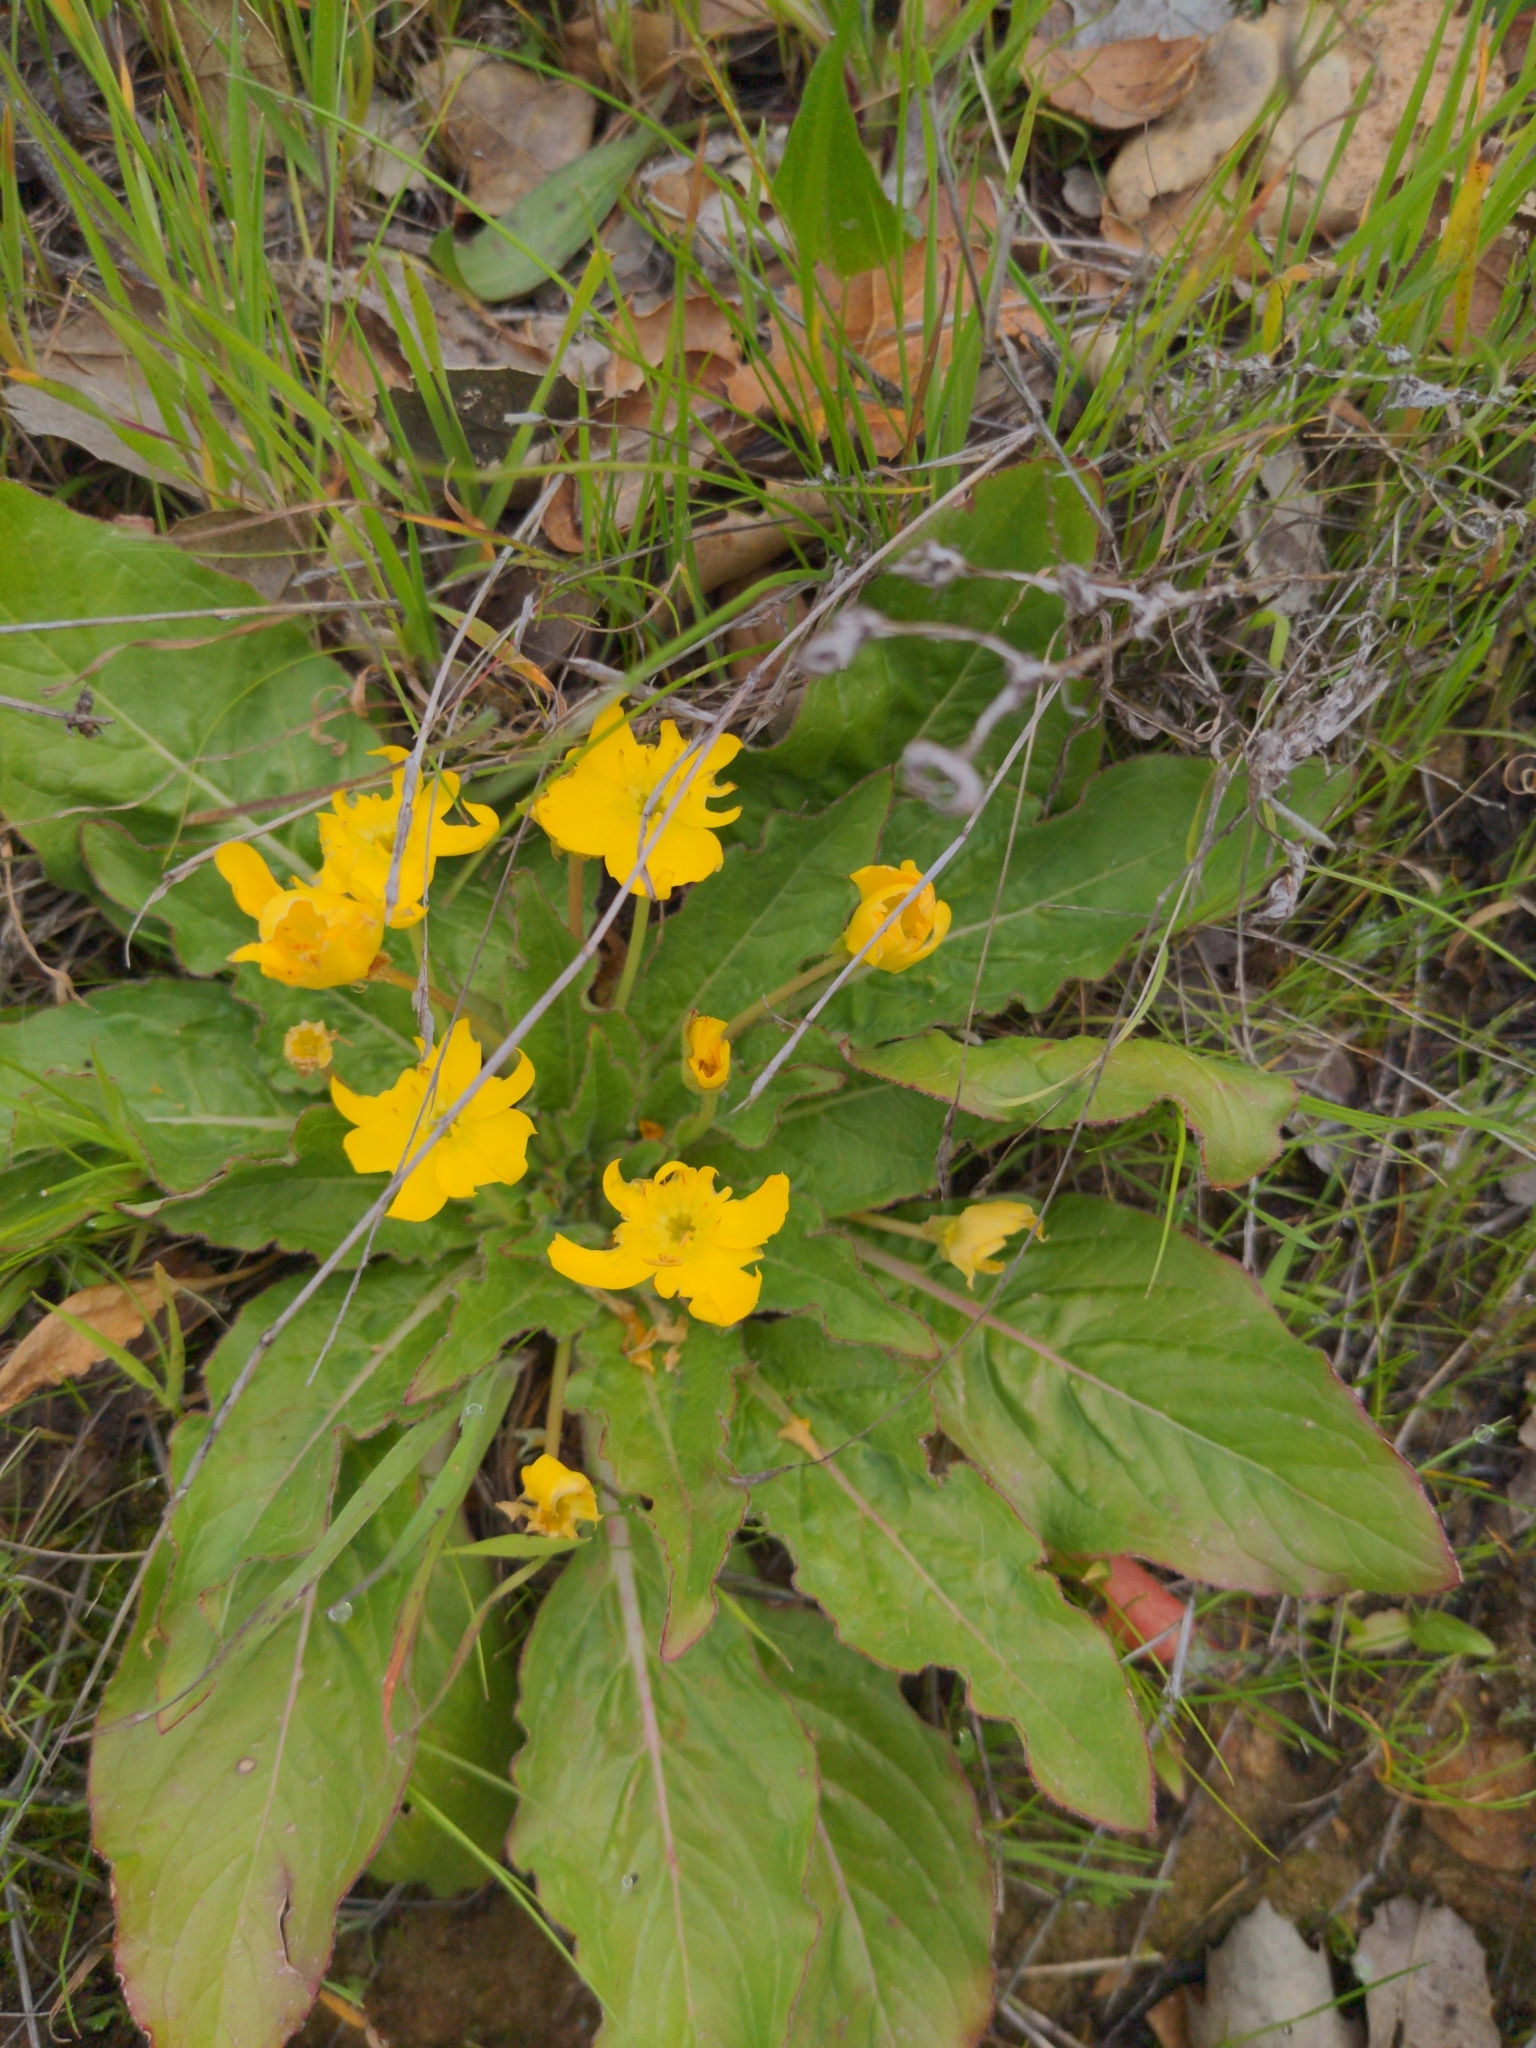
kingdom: Plantae
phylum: Tracheophyta
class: Magnoliopsida
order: Myrtales
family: Onagraceae
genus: Taraxia
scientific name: Taraxia ovata
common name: Goldeneggs
